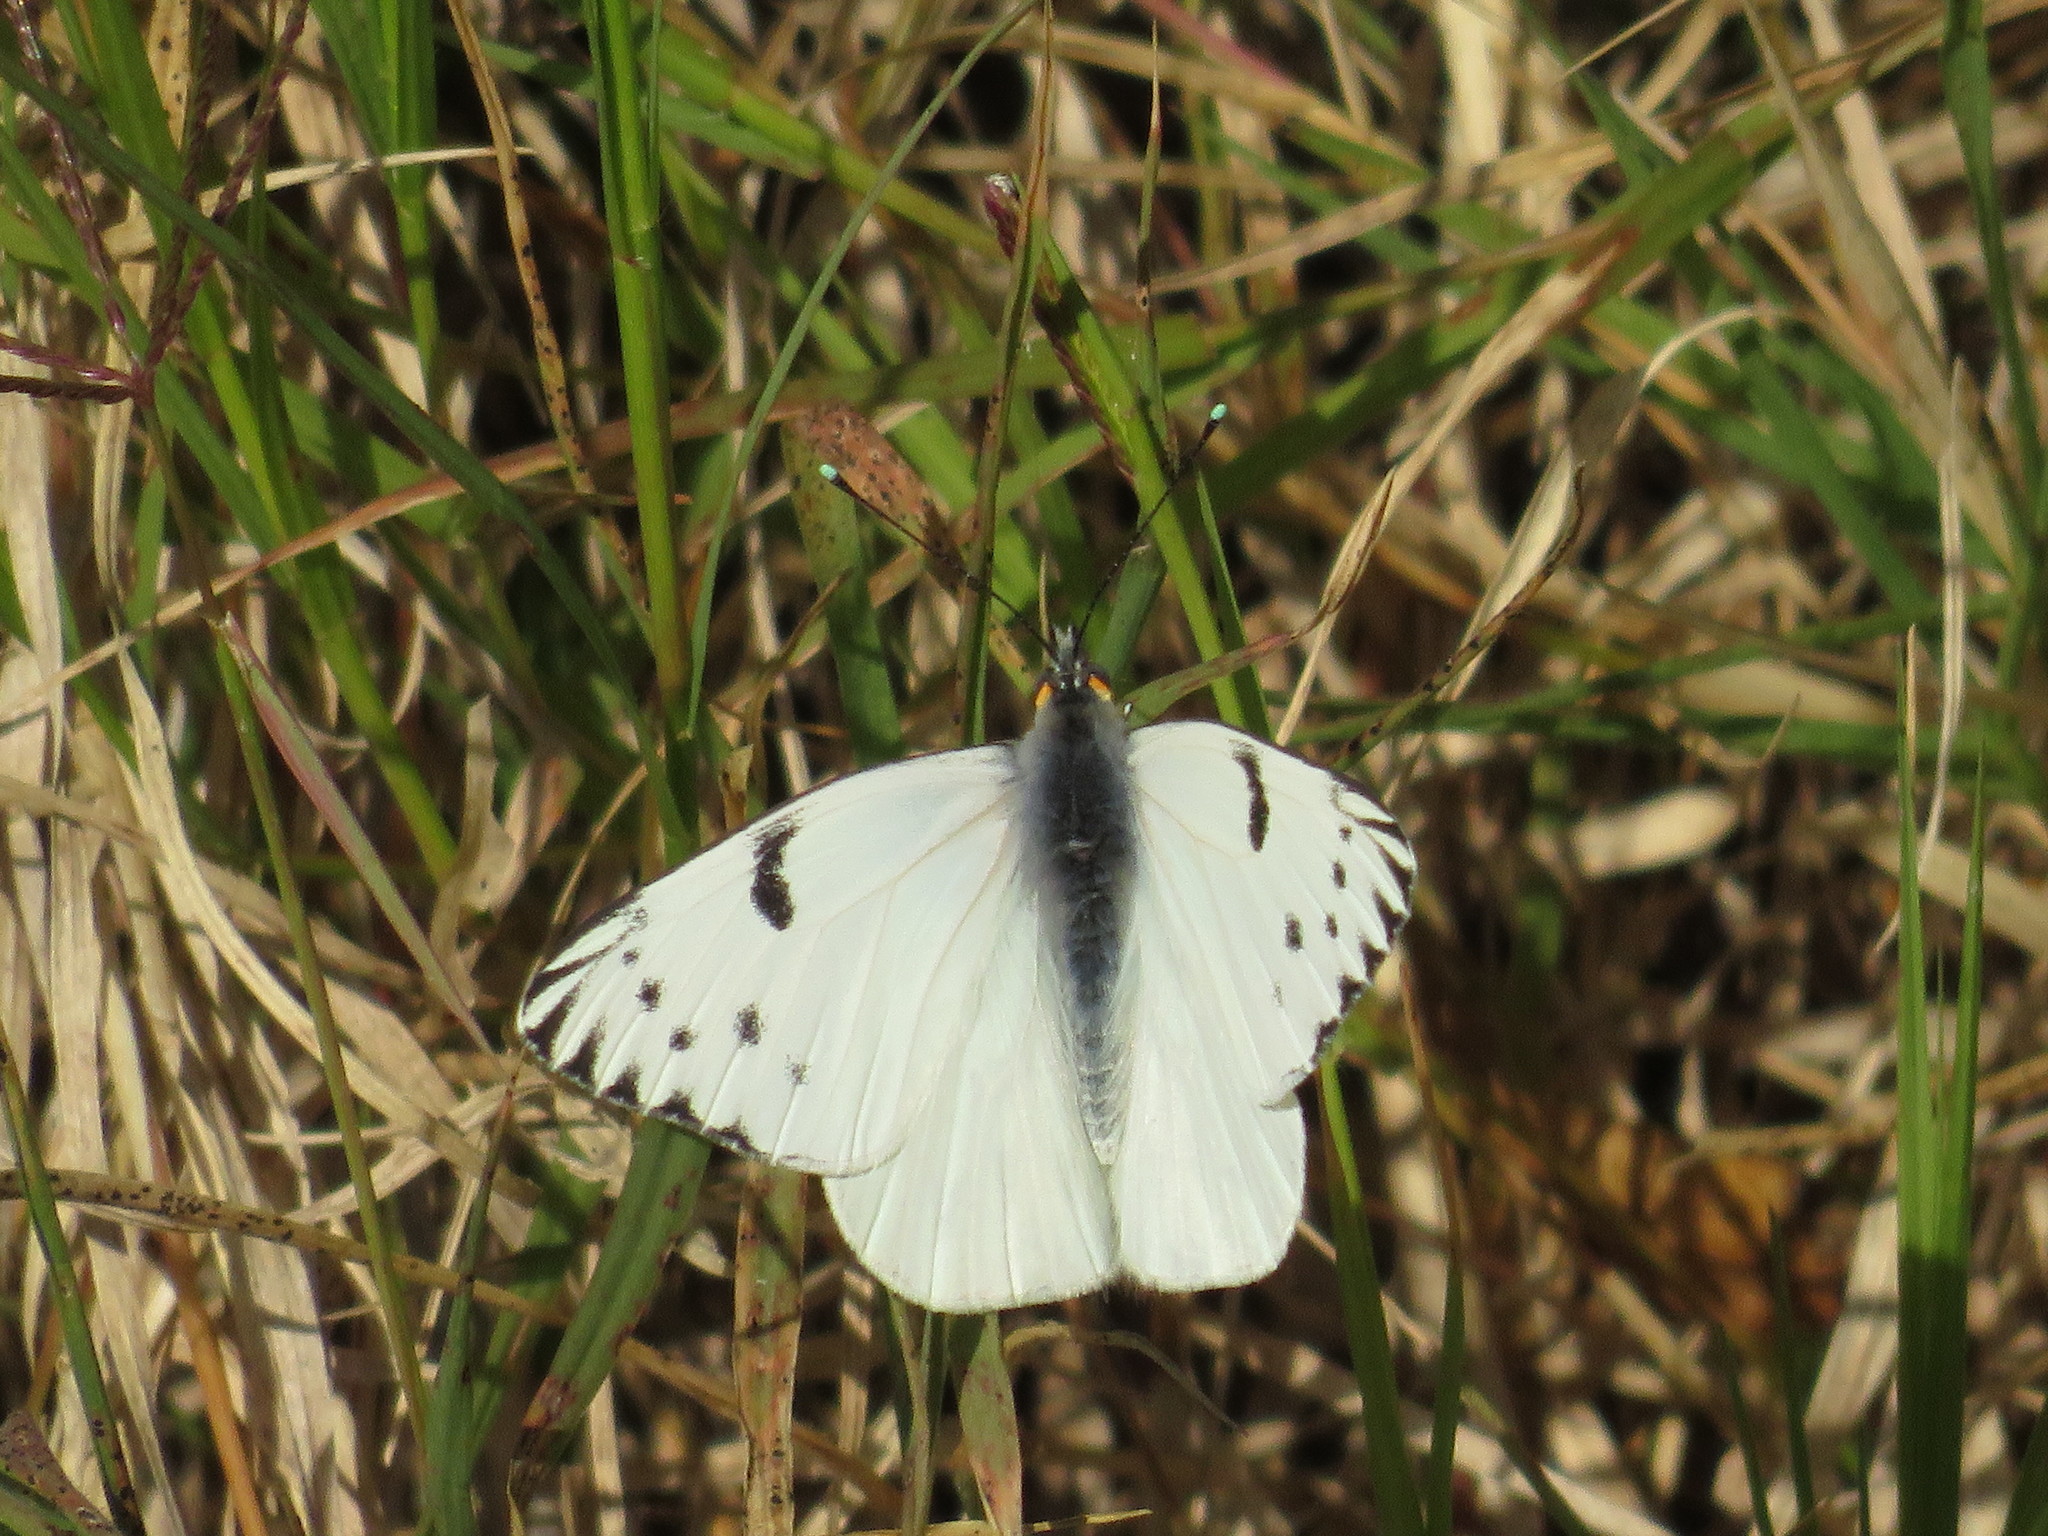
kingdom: Animalia
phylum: Arthropoda
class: Insecta
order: Lepidoptera
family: Pieridae
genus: Tatochila
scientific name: Tatochila autodice
